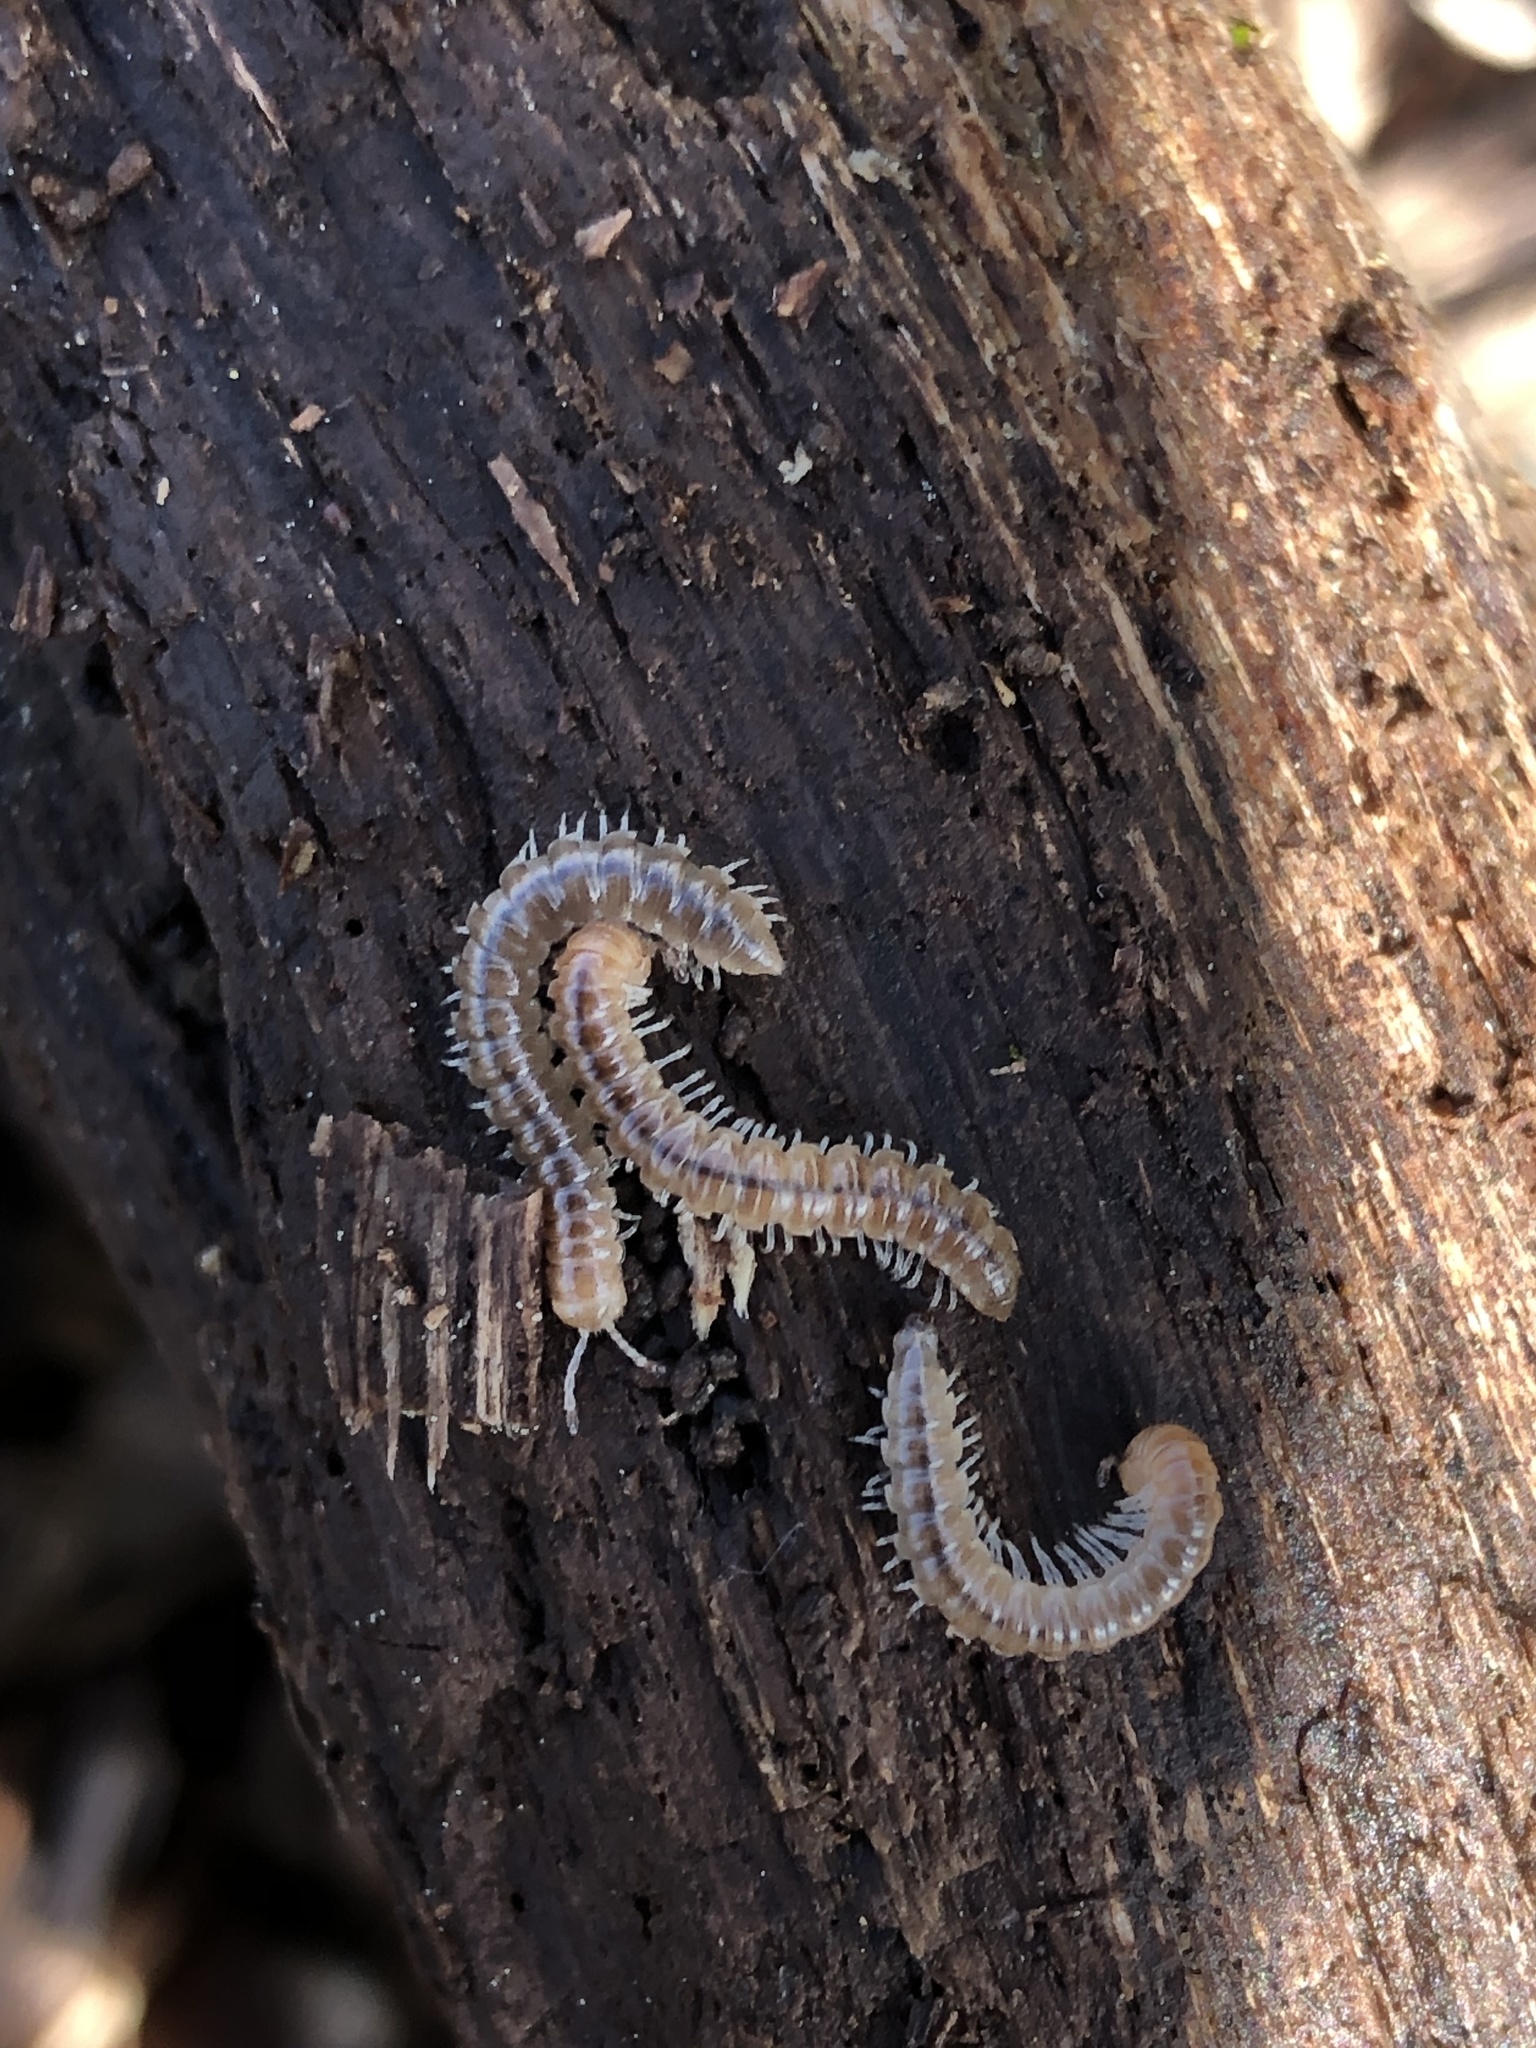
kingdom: Animalia
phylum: Arthropoda
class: Diplopoda
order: Polydesmida
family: Paradoxosomatidae
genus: Oxidus
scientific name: Oxidus gracilis
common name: Greenhouse millipede
